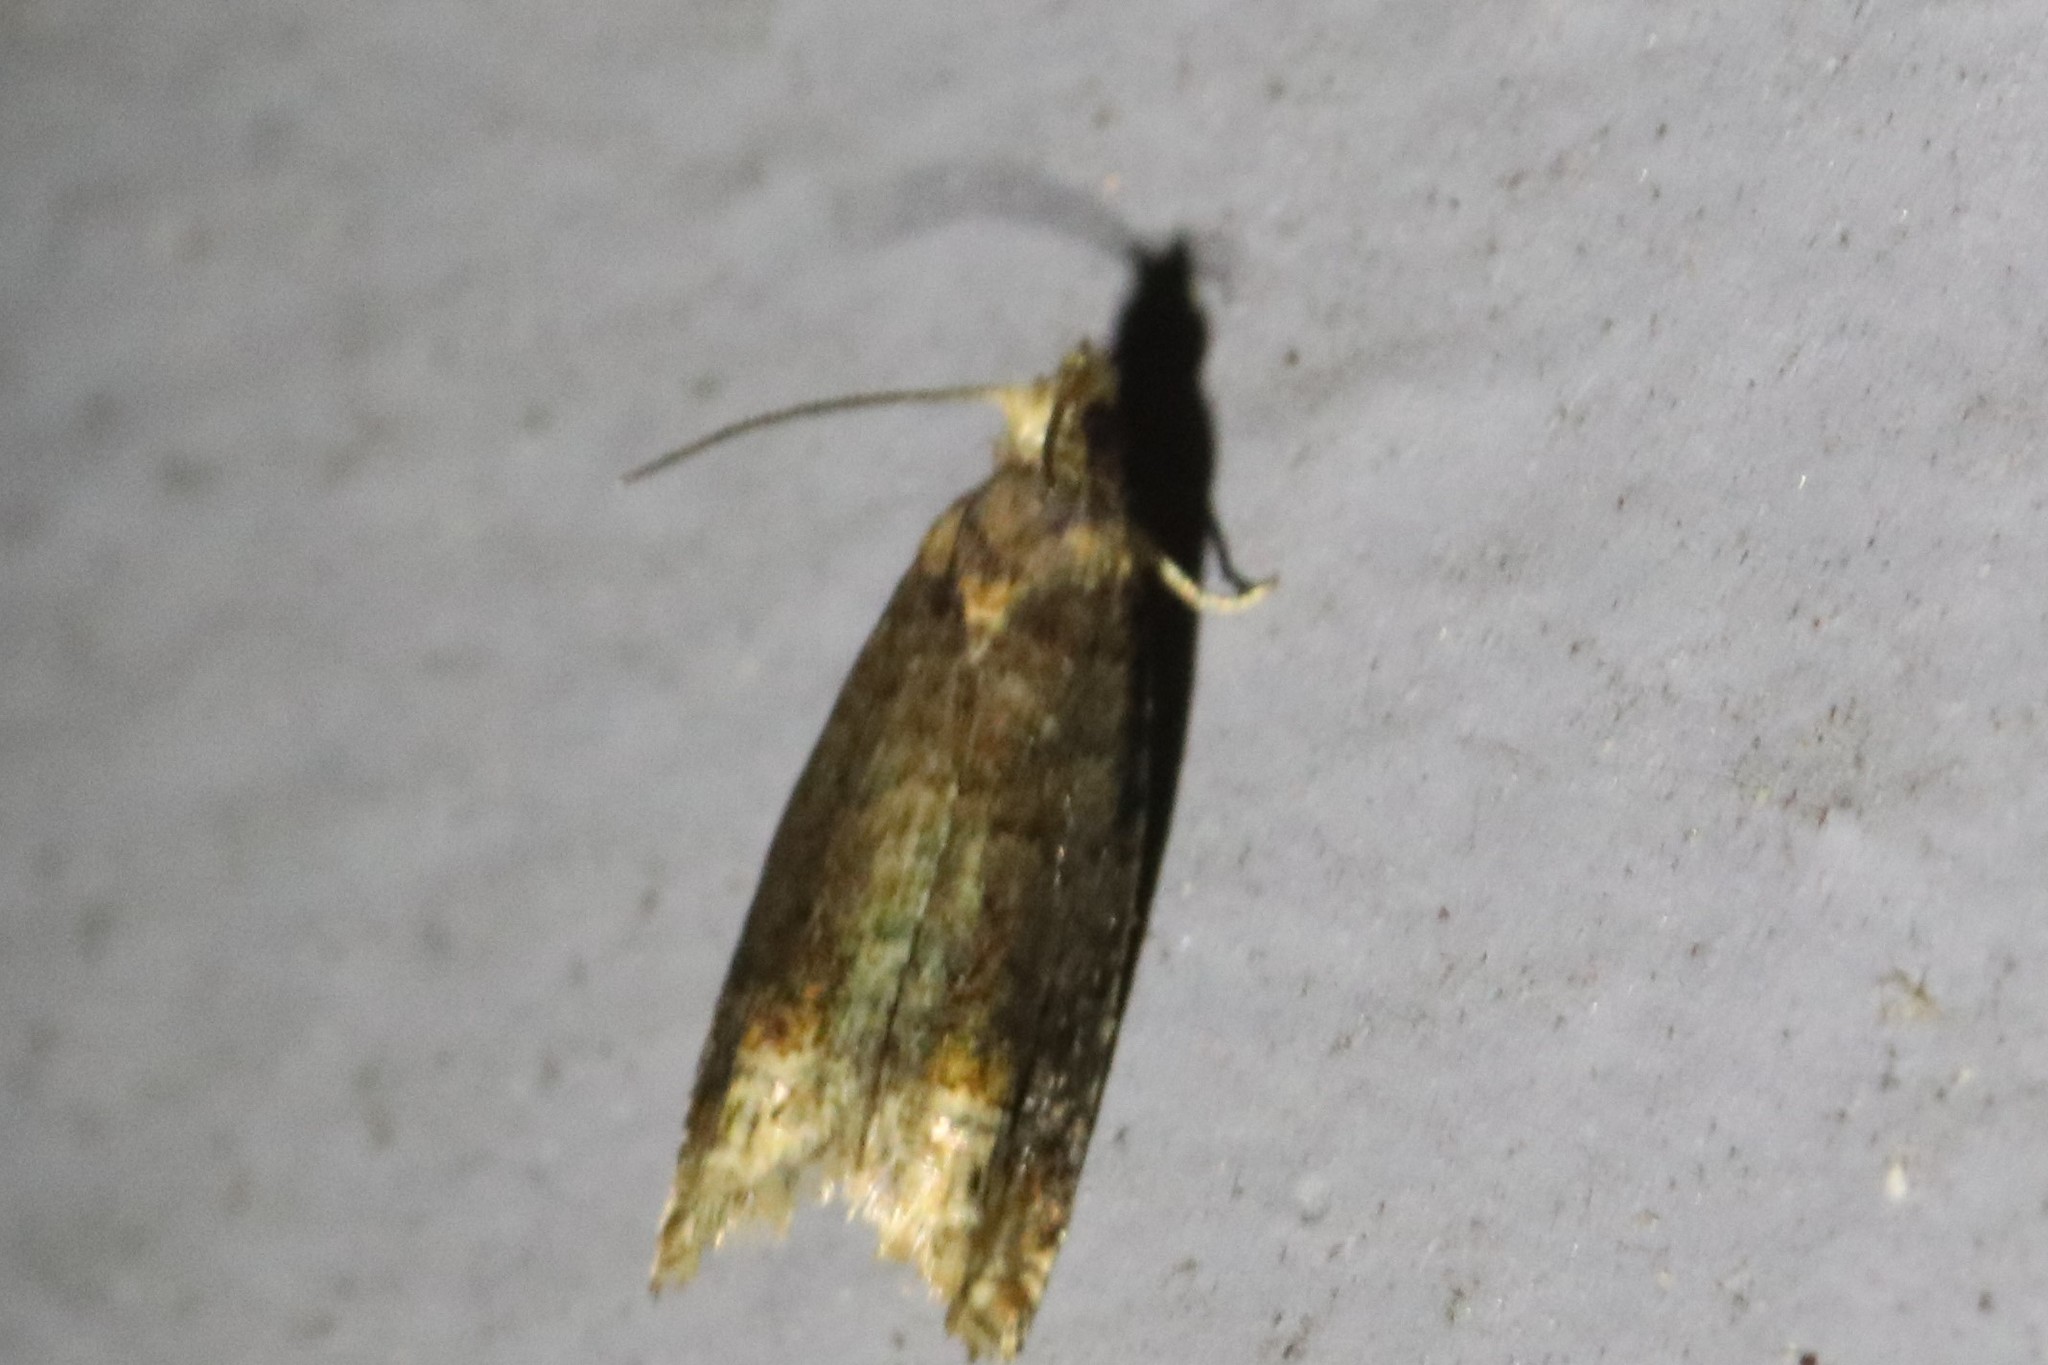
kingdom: Animalia
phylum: Arthropoda
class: Insecta
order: Lepidoptera
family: Tortricidae
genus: Eucosma
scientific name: Eucosma ochroterminana
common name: Buff-tipped eucosma moth
